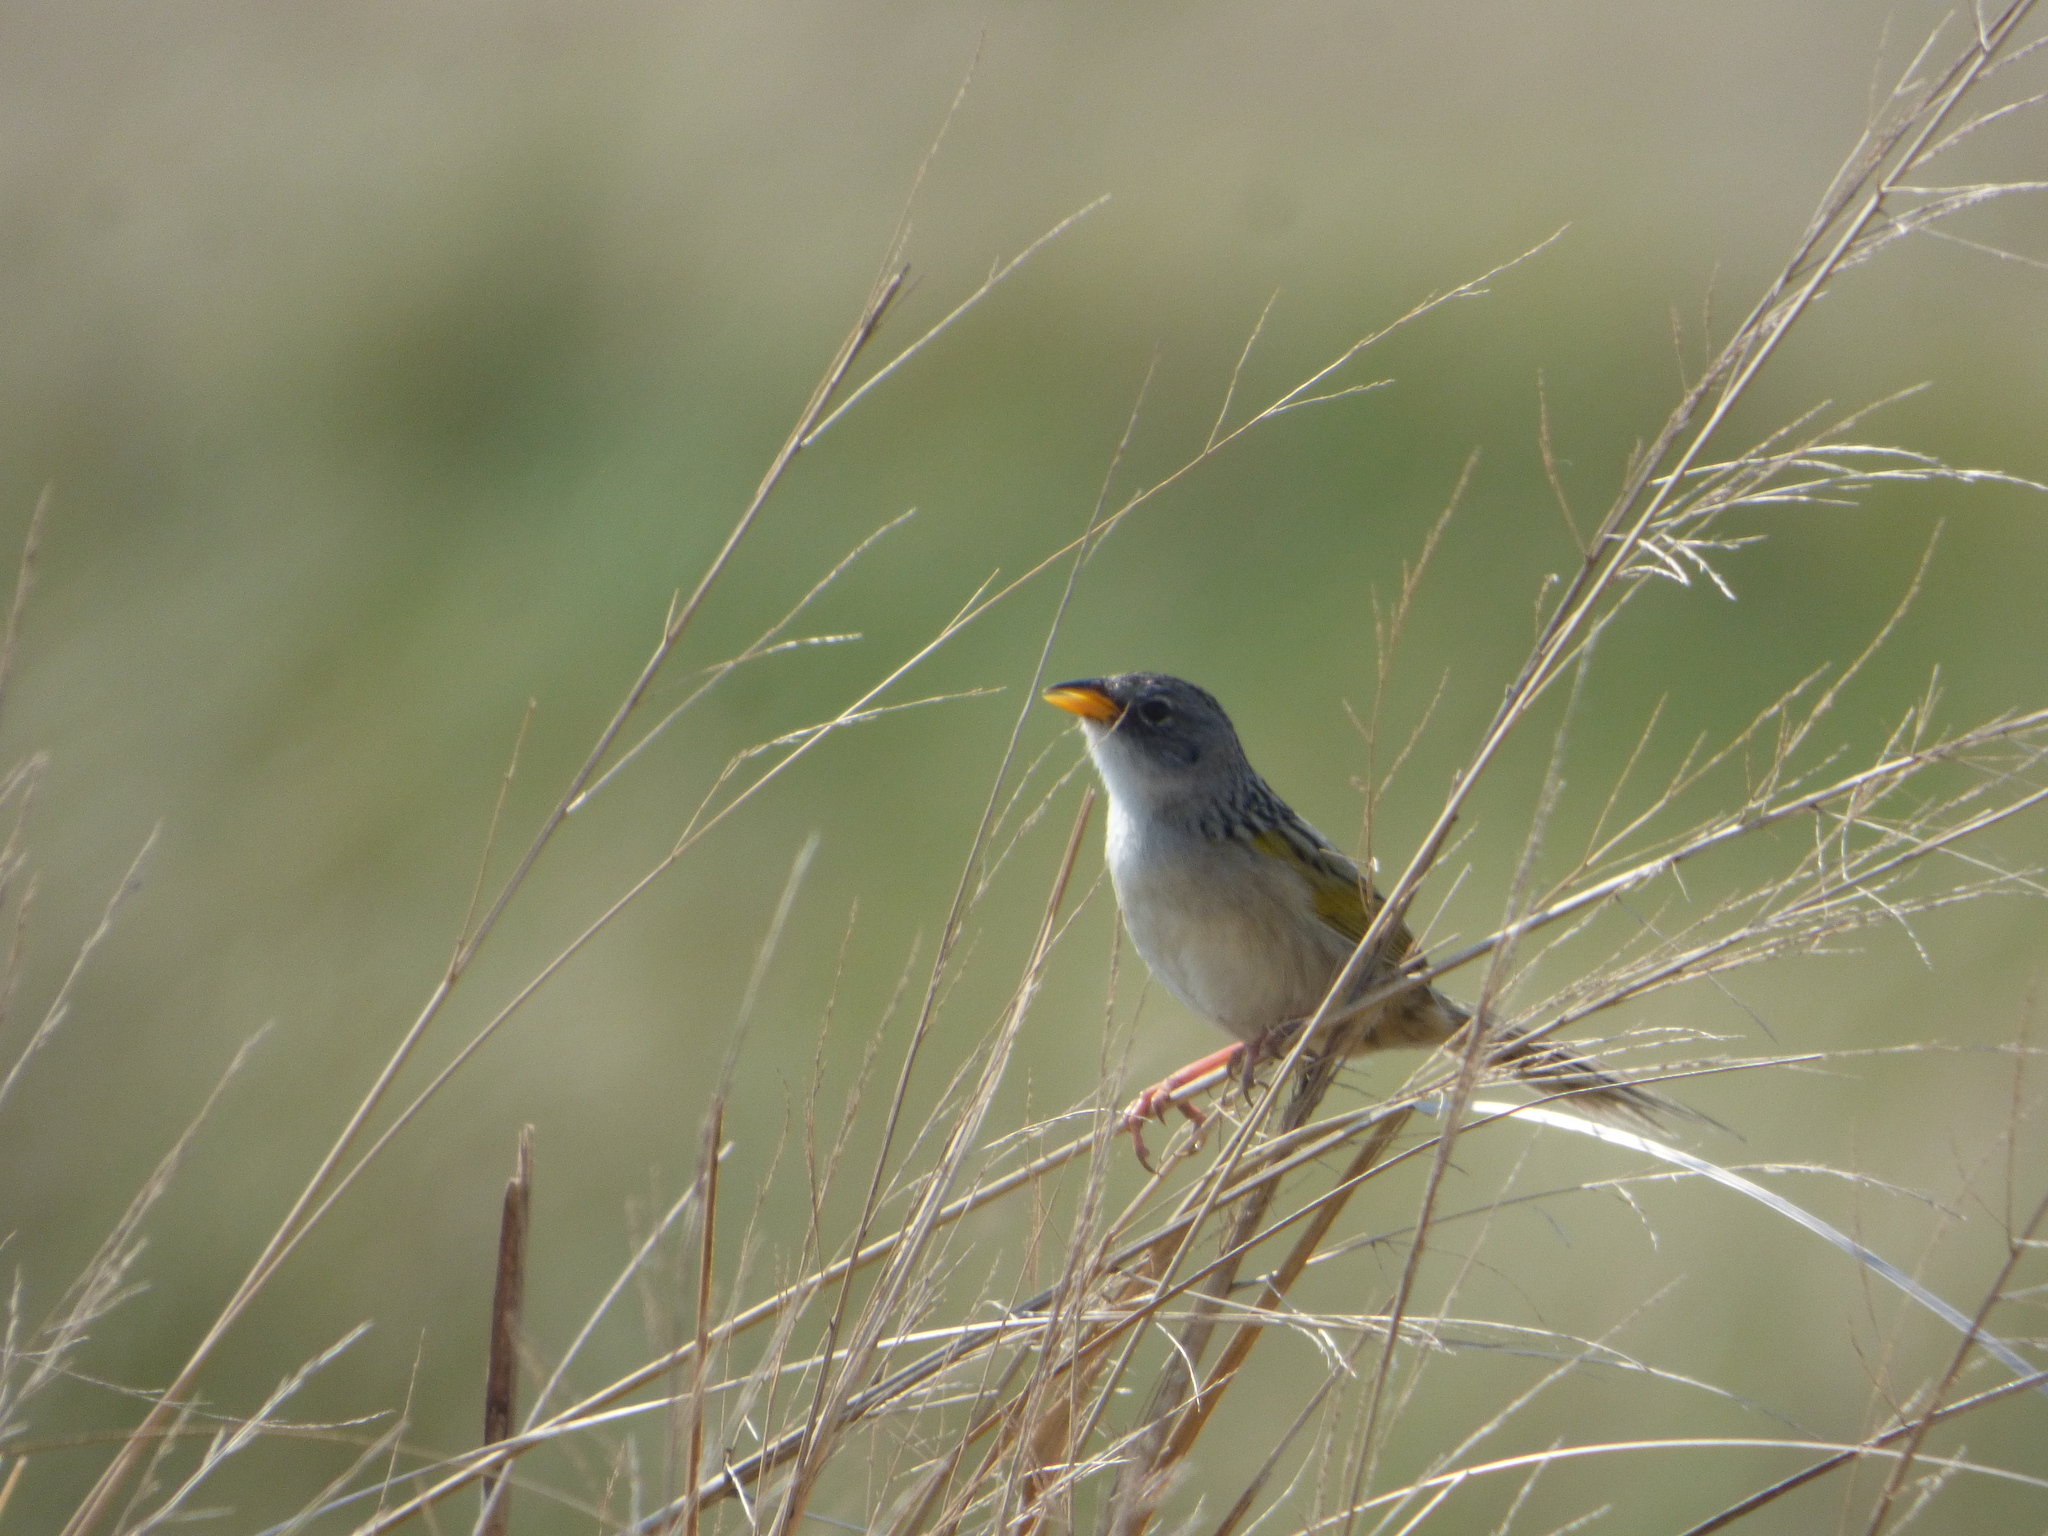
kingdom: Animalia
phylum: Chordata
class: Aves
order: Passeriformes
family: Thraupidae
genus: Emberizoides
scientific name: Emberizoides ypiranganus
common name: Lesser grass finch
